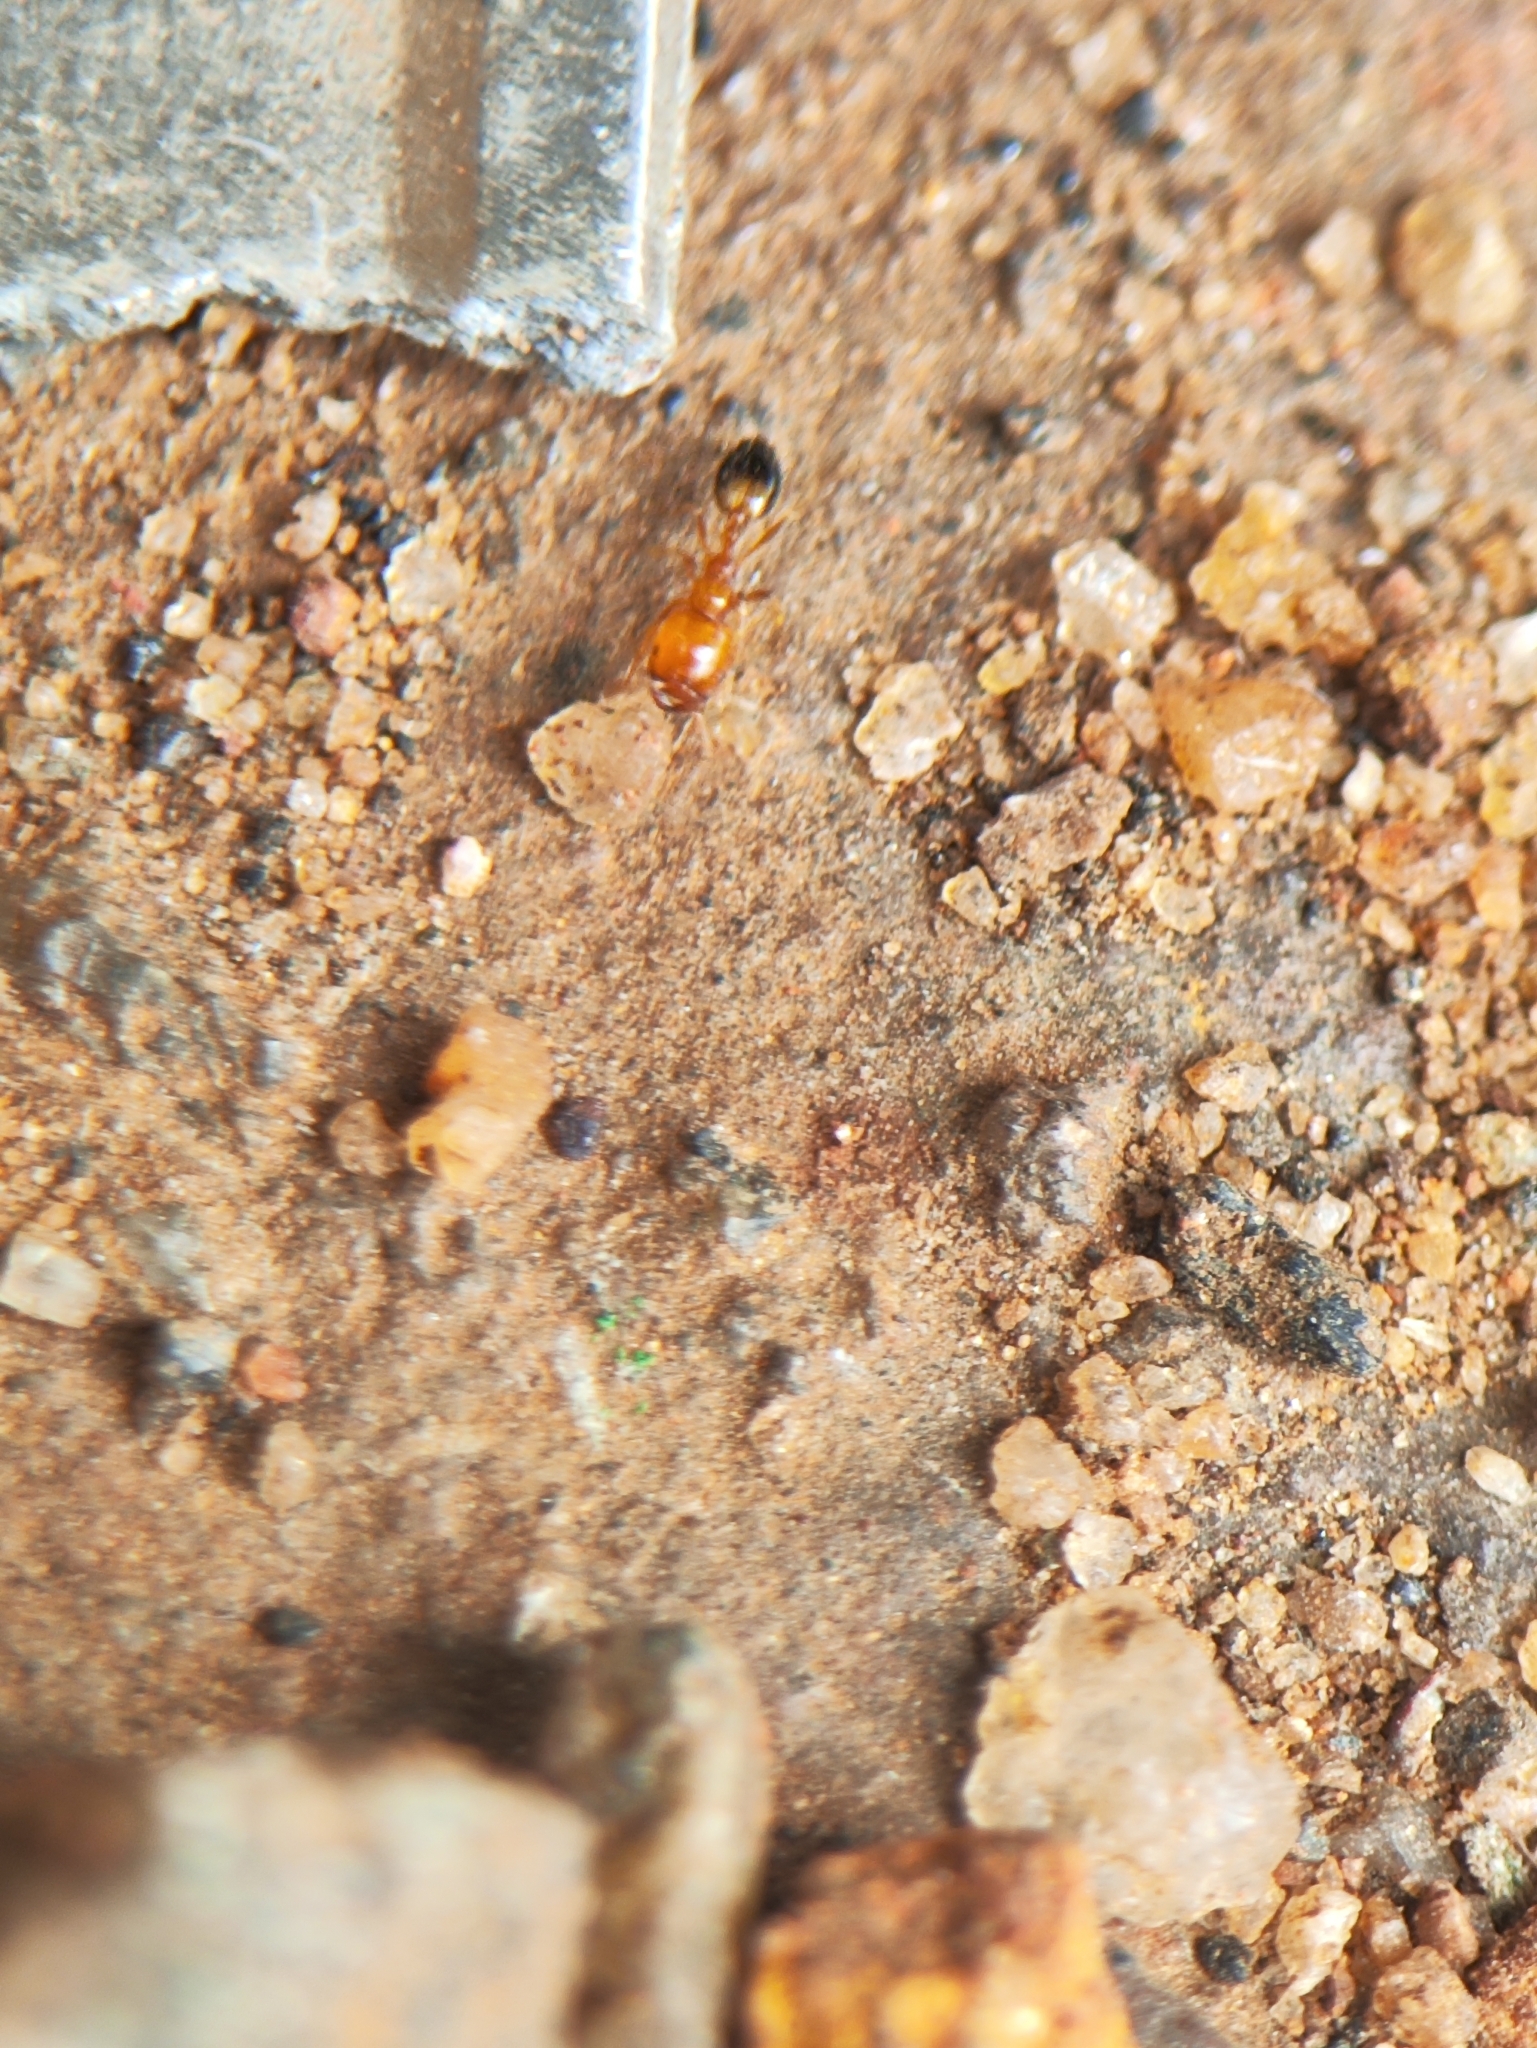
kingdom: Animalia
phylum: Arthropoda
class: Insecta
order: Hymenoptera
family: Formicidae
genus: Monomorium
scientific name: Monomorium destructor
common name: Destructive trailing ant
